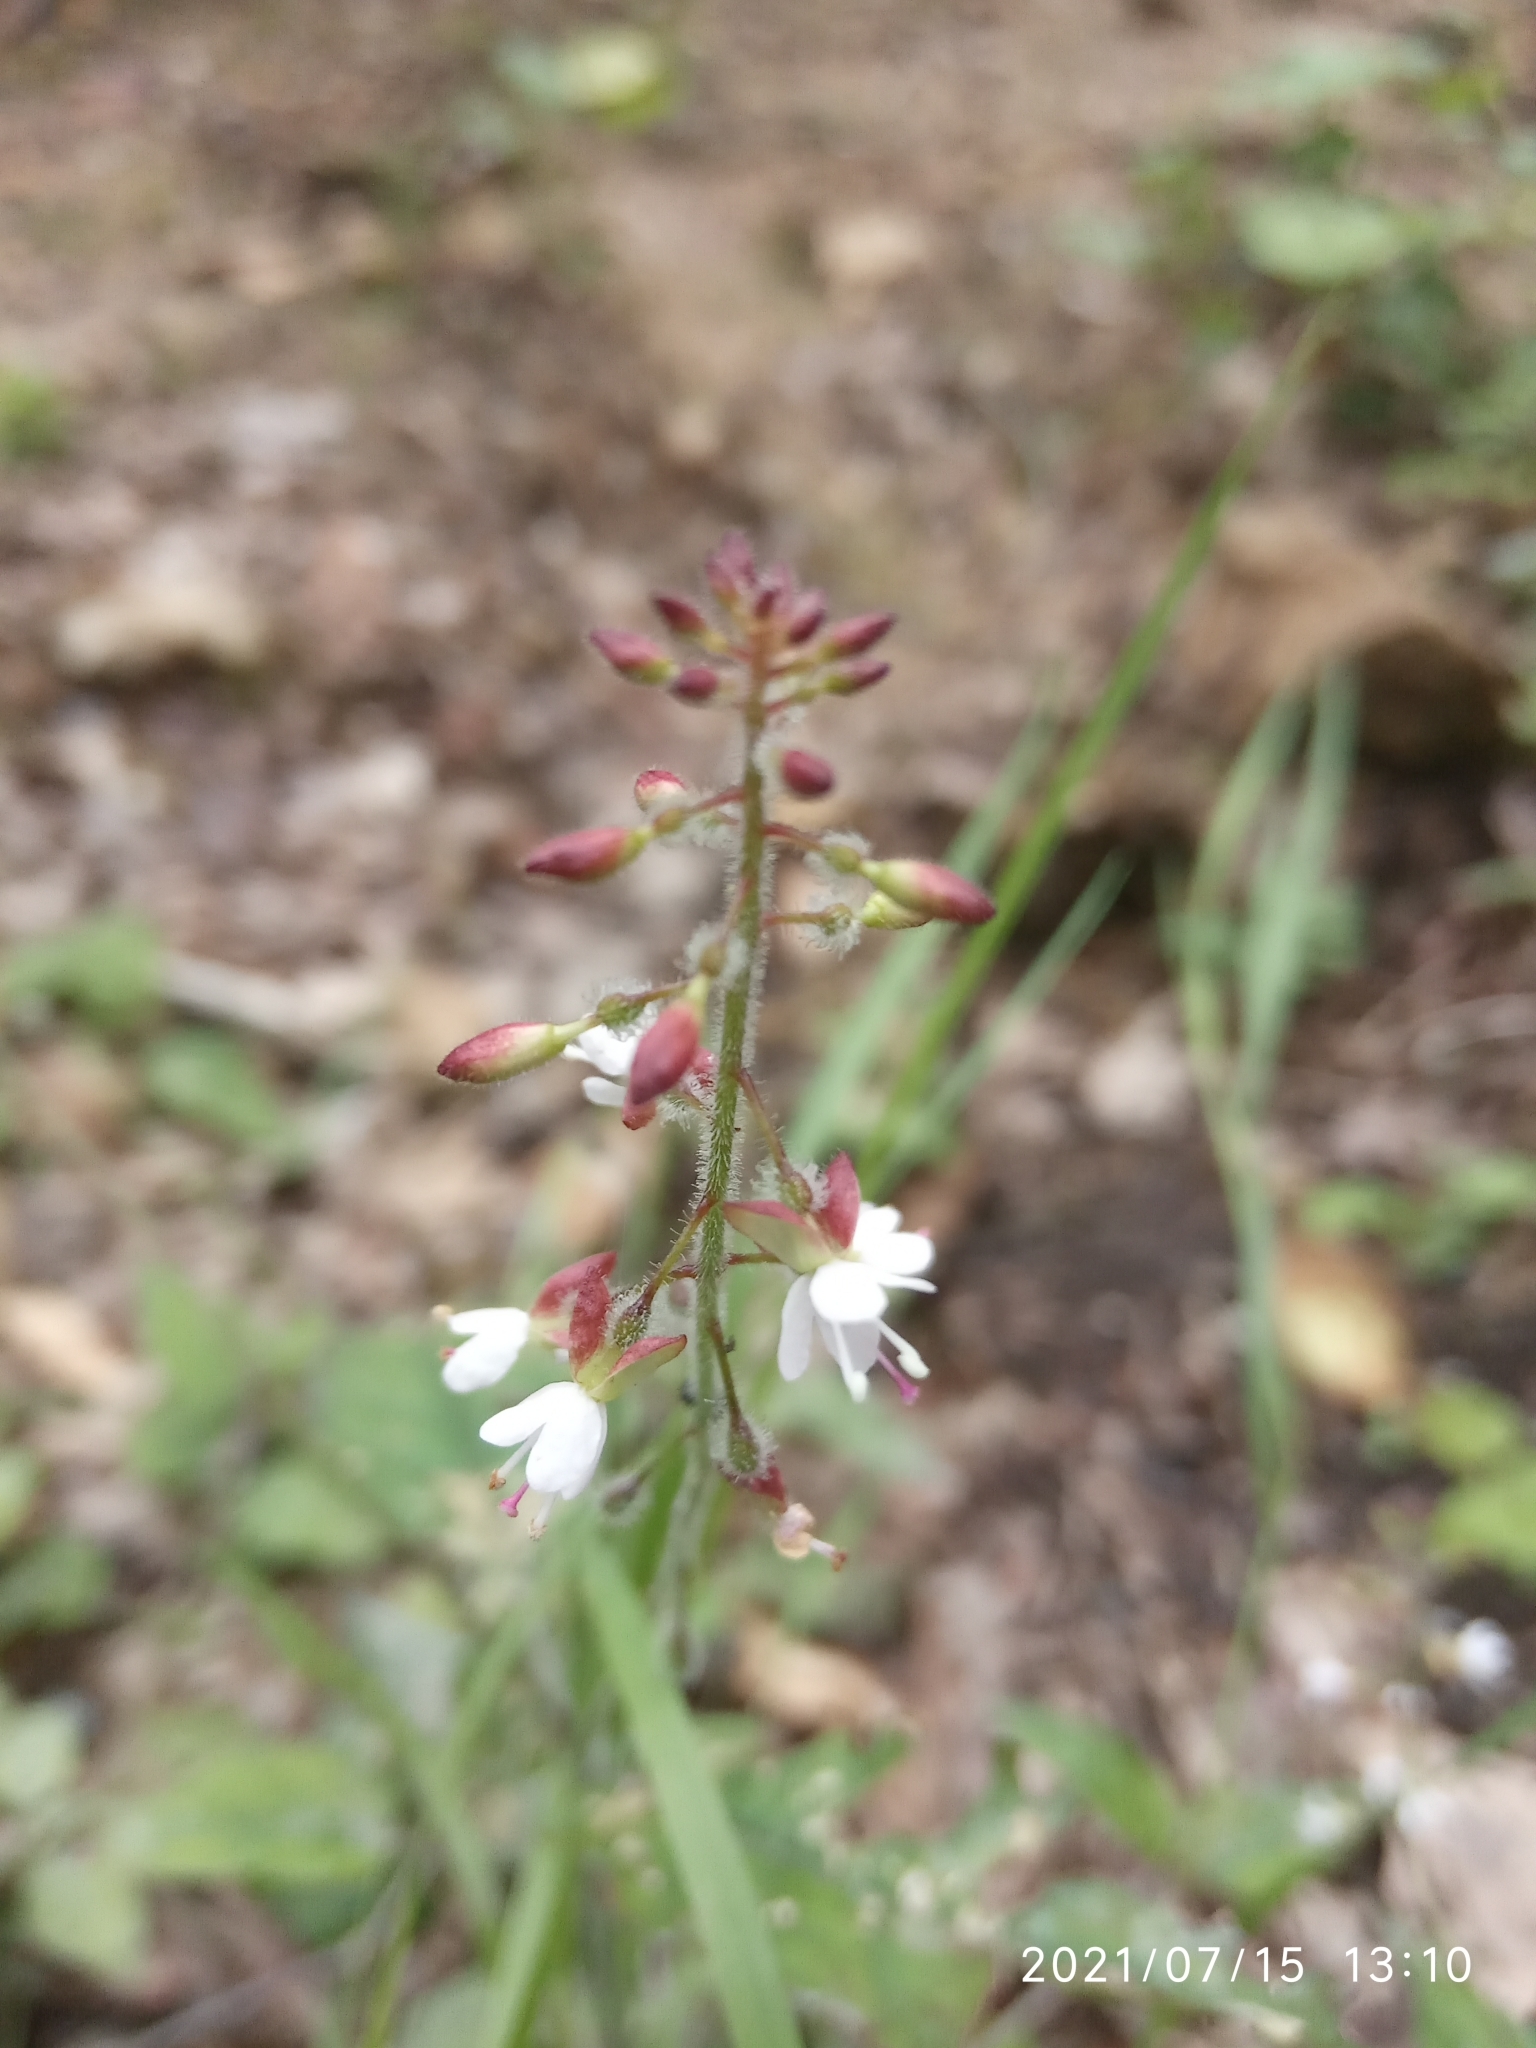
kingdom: Plantae
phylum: Tracheophyta
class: Magnoliopsida
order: Myrtales
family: Onagraceae
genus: Circaea
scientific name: Circaea lutetiana
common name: Enchanter's-nightshade
